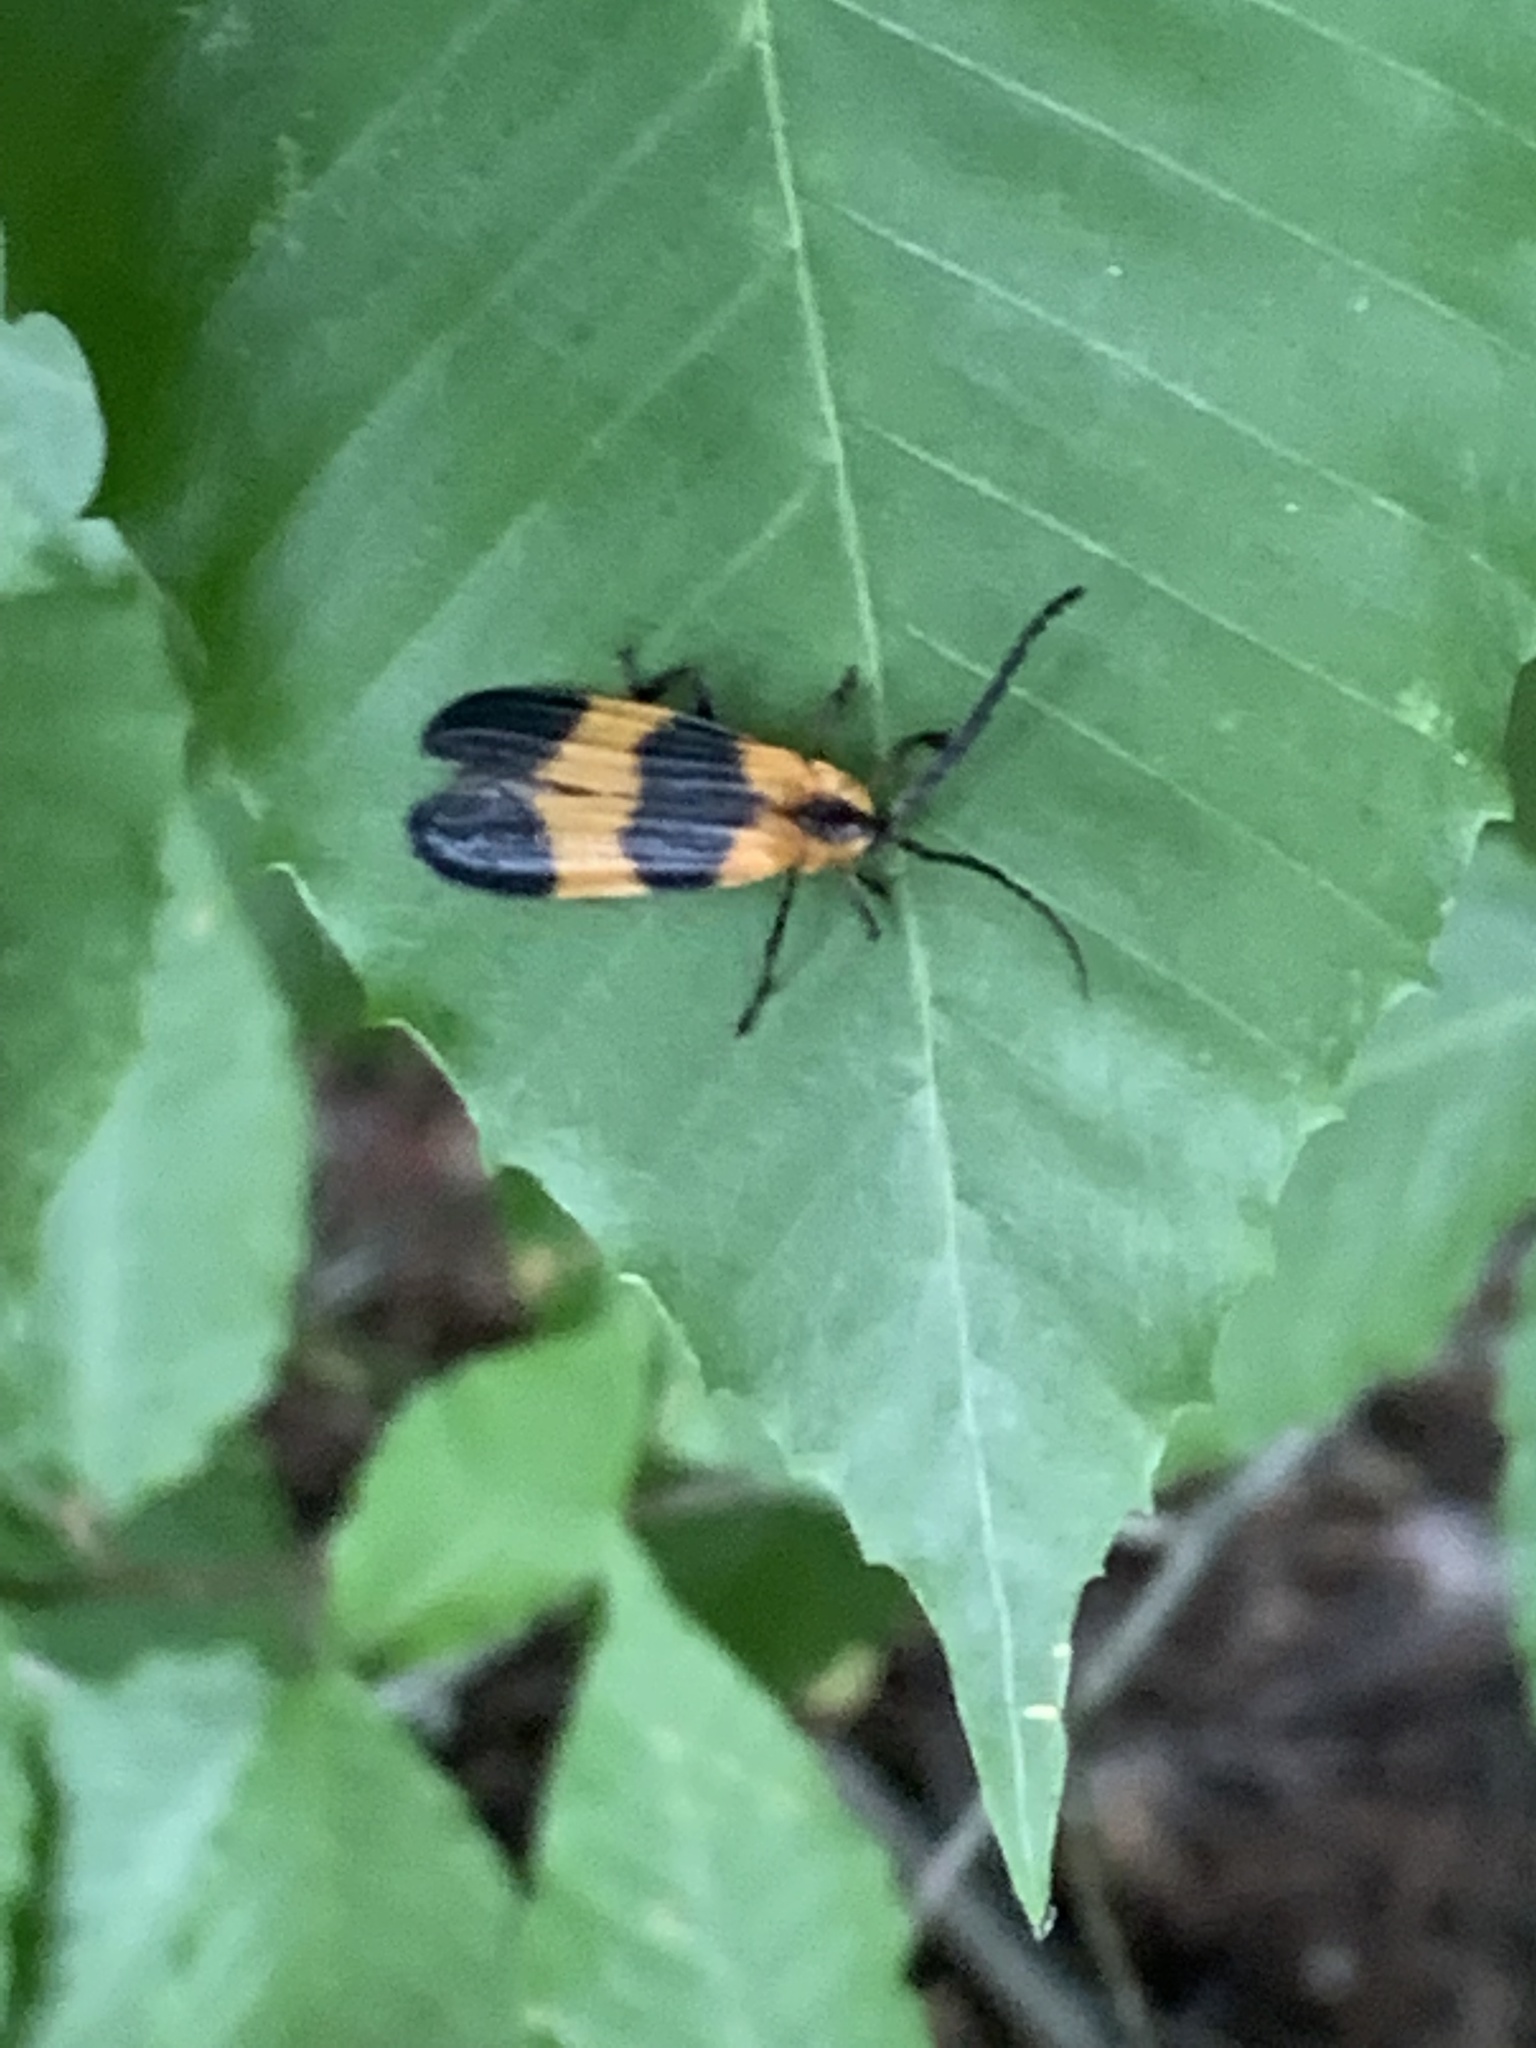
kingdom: Animalia
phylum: Arthropoda
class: Insecta
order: Coleoptera
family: Lycidae
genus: Calopteron
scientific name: Calopteron reticulatum
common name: Banded net-winged beetle
